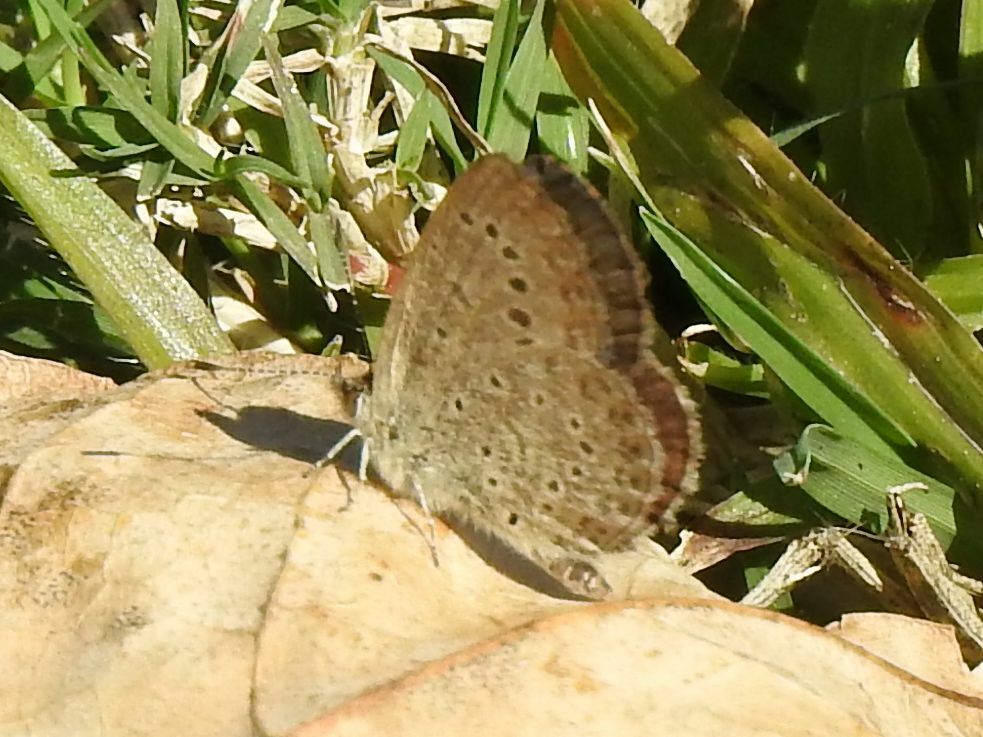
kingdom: Animalia
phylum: Arthropoda
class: Insecta
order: Lepidoptera
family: Lycaenidae
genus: Zizeeria
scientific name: Zizeeria knysna
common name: African grass blue
